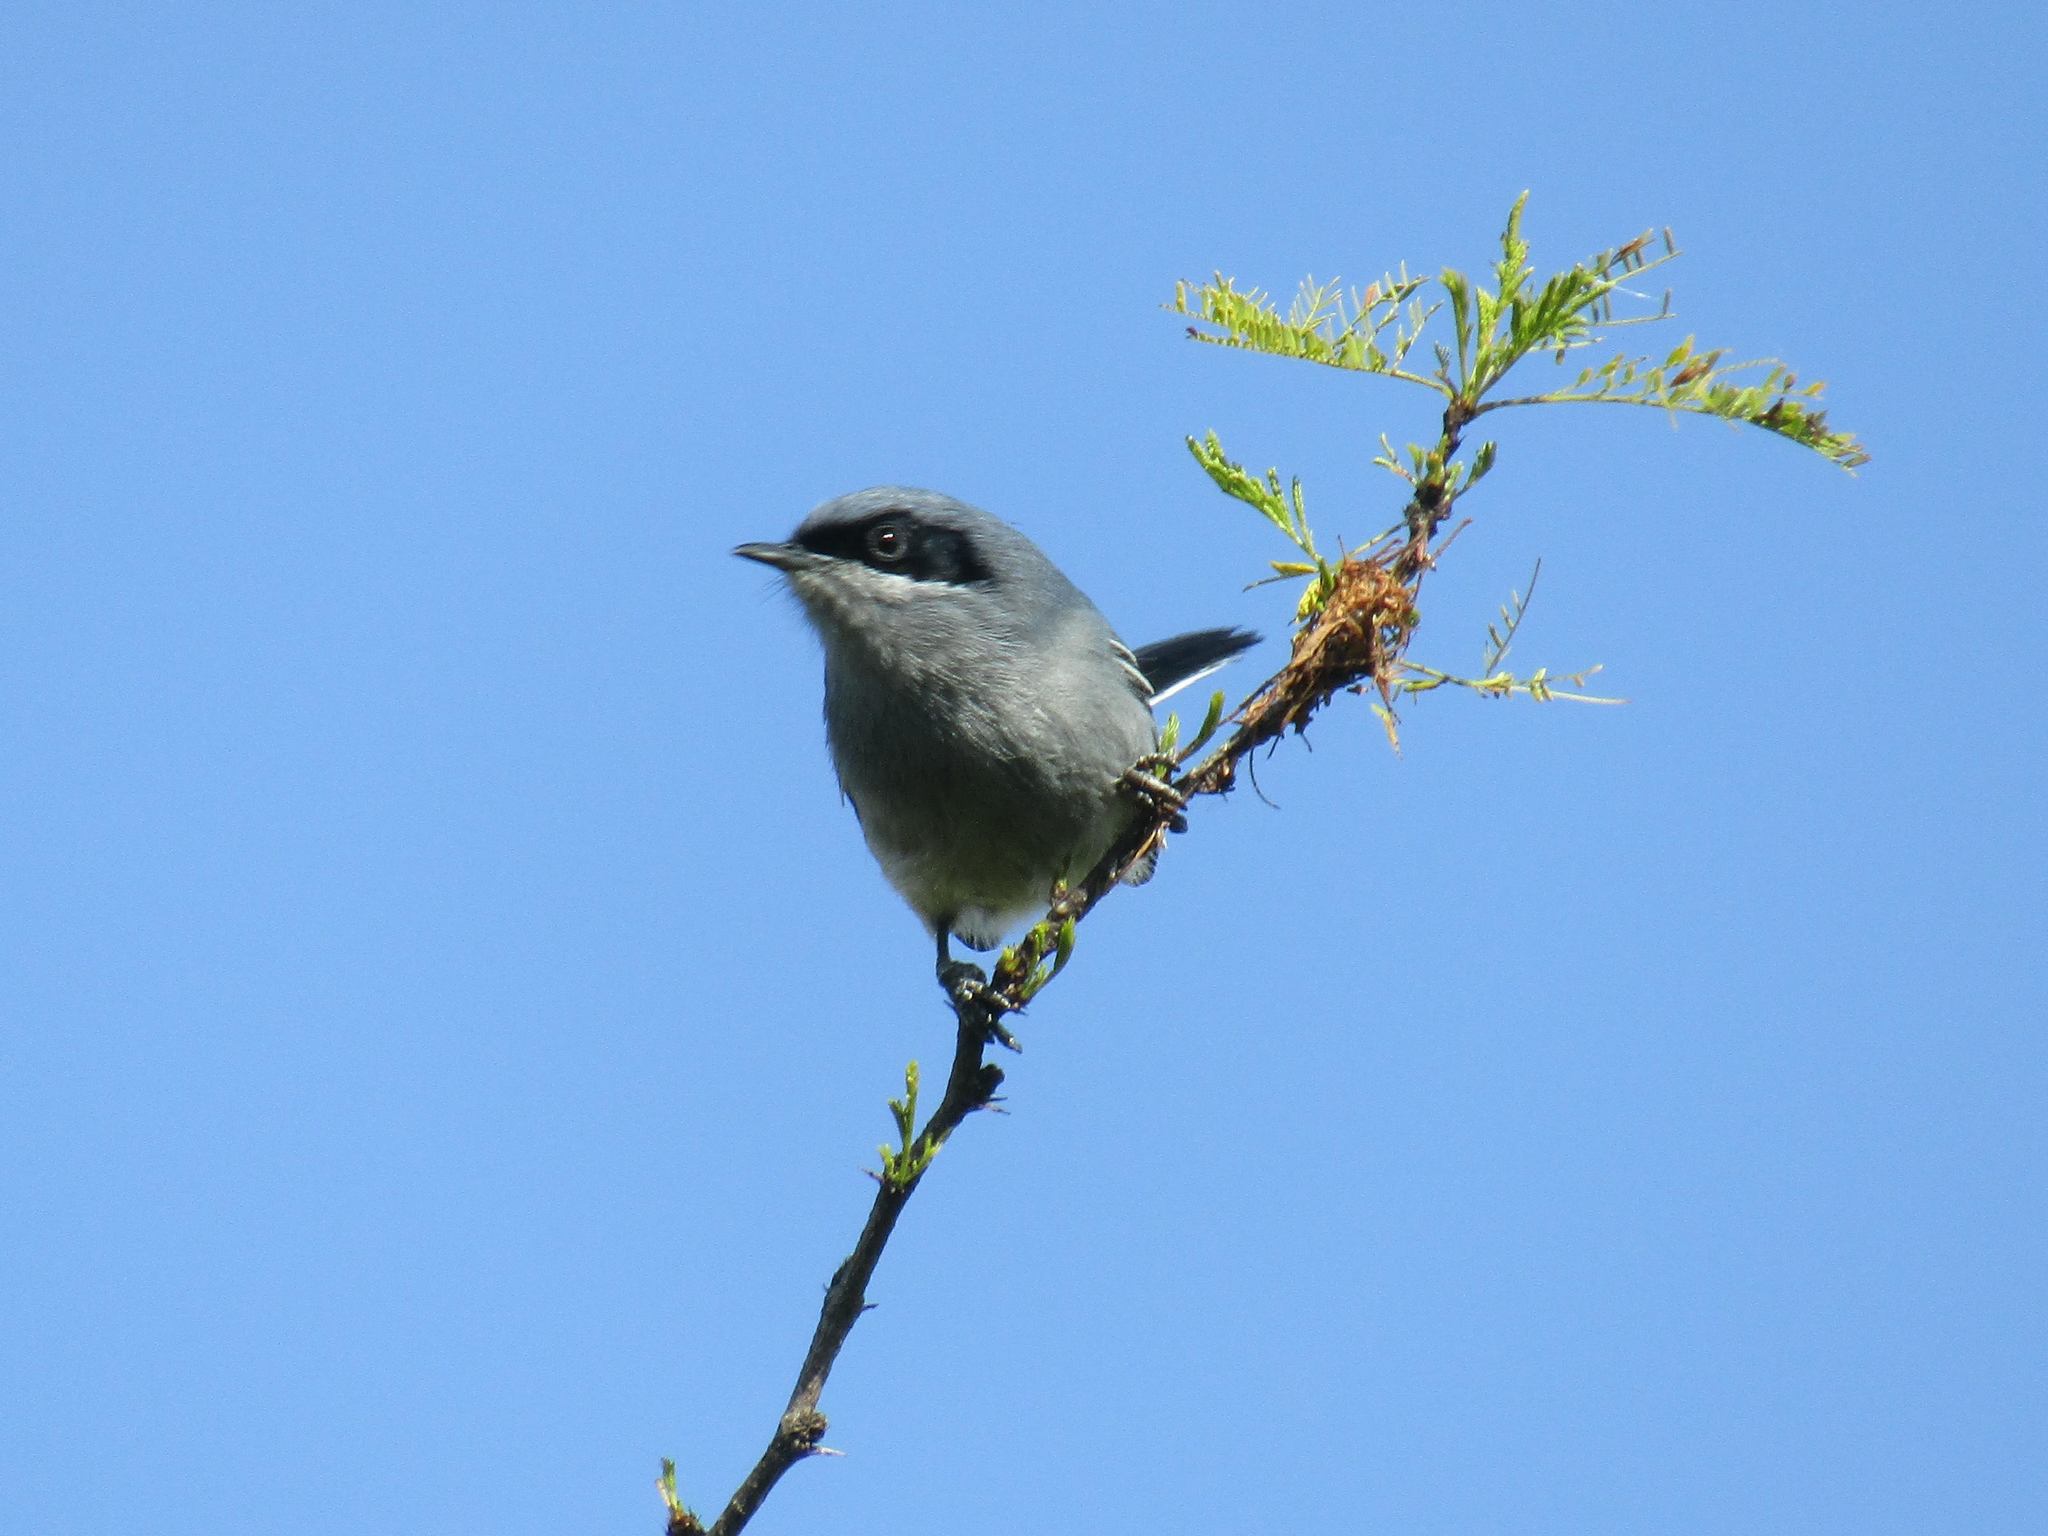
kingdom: Animalia
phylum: Chordata
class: Aves
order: Passeriformes
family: Polioptilidae
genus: Polioptila
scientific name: Polioptila dumicola
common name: Masked gnatcatcher
